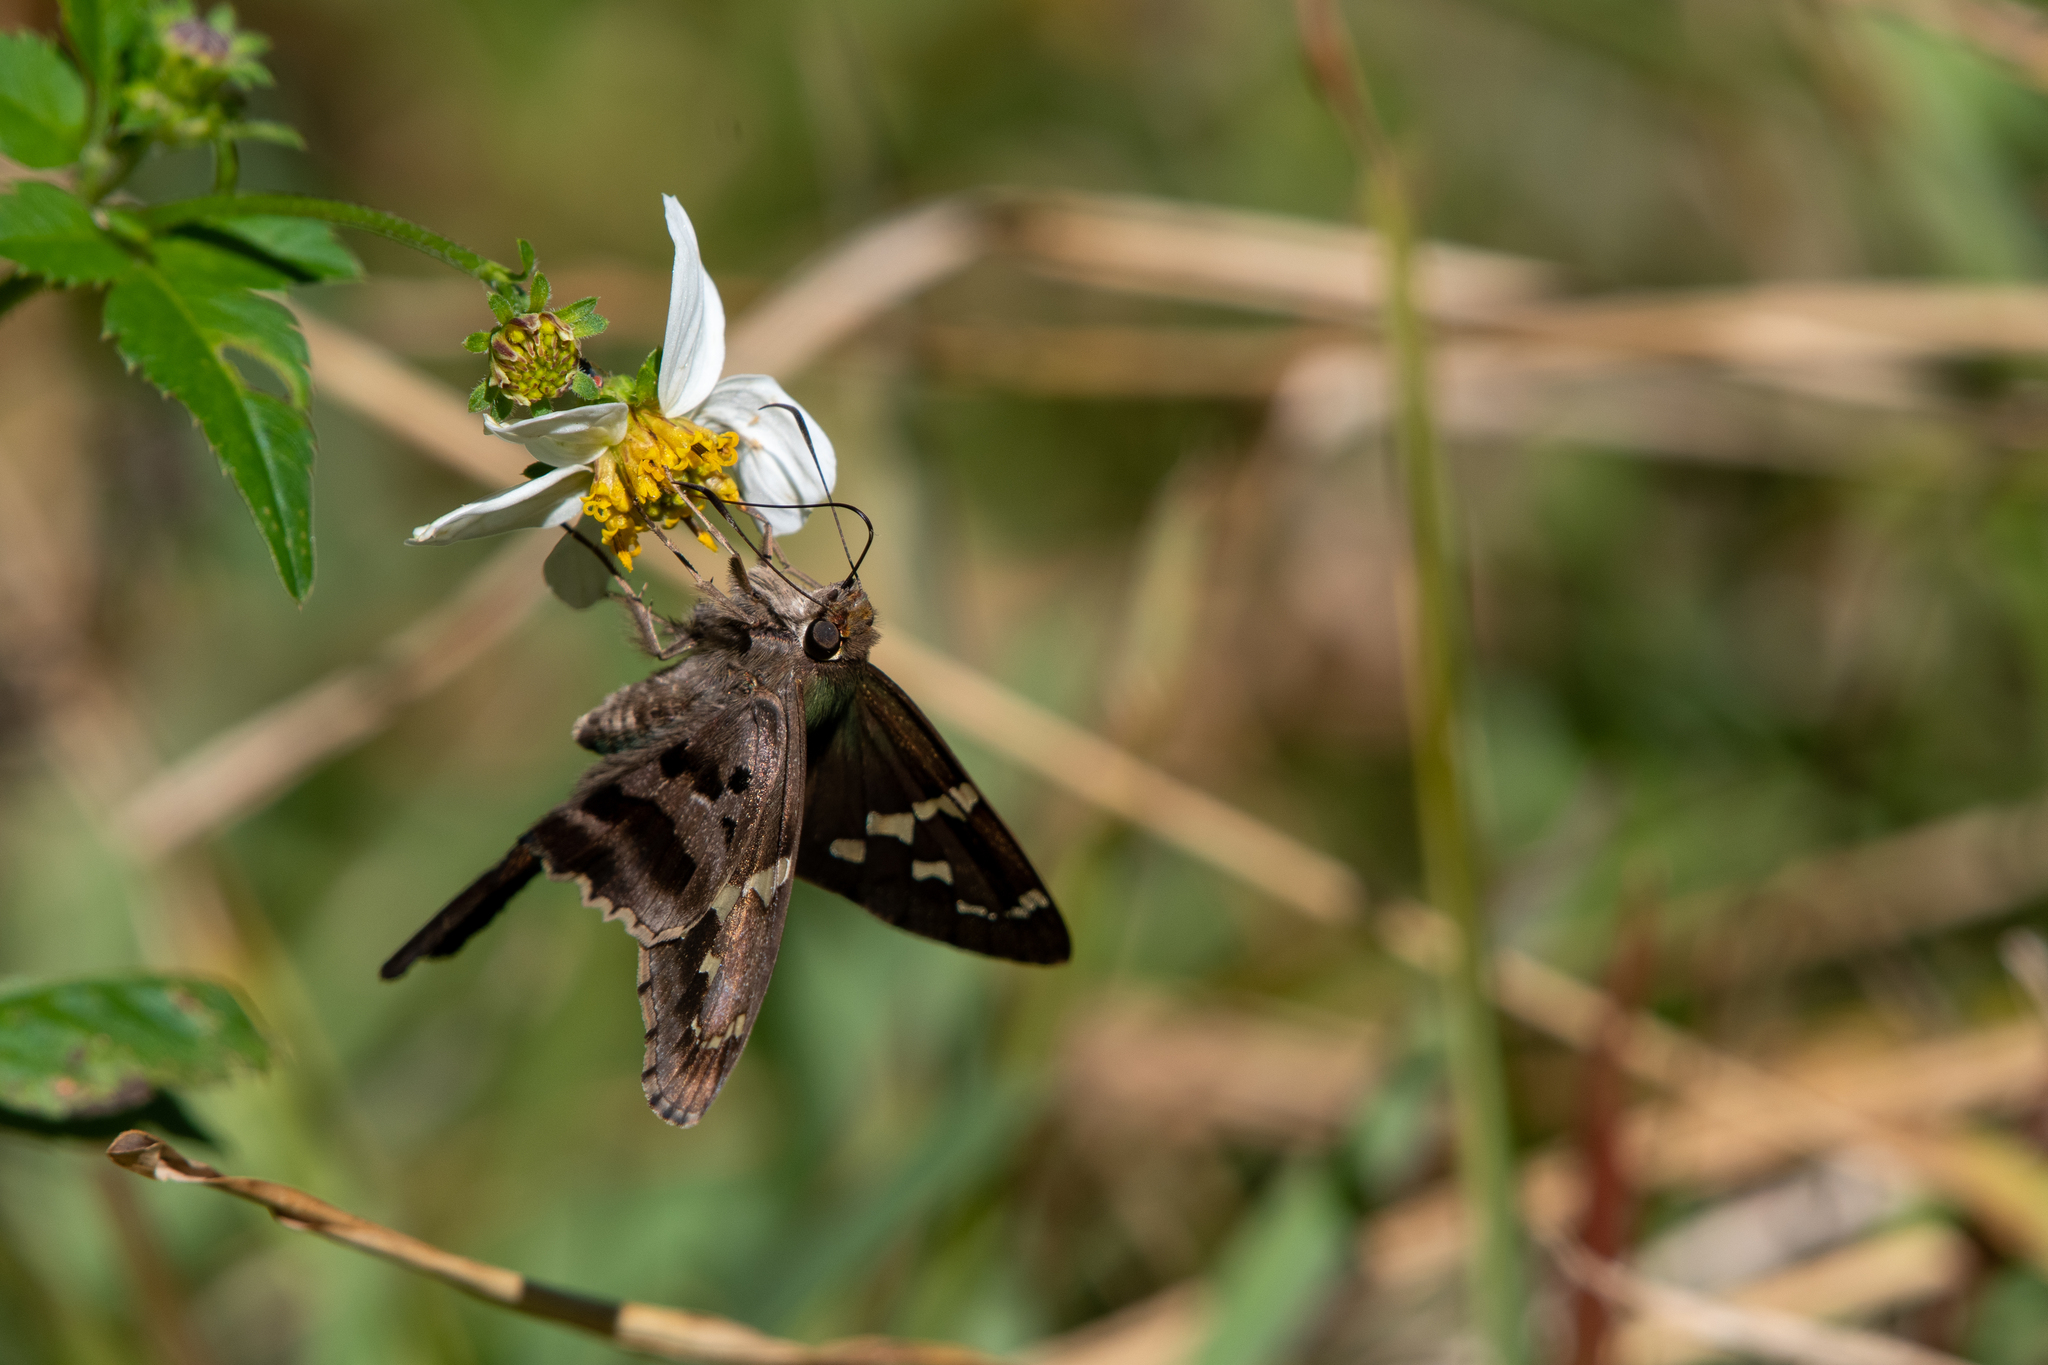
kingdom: Animalia
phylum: Arthropoda
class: Insecta
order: Lepidoptera
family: Hesperiidae
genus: Urbanus
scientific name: Urbanus proteus
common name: Long-tailed skipper
